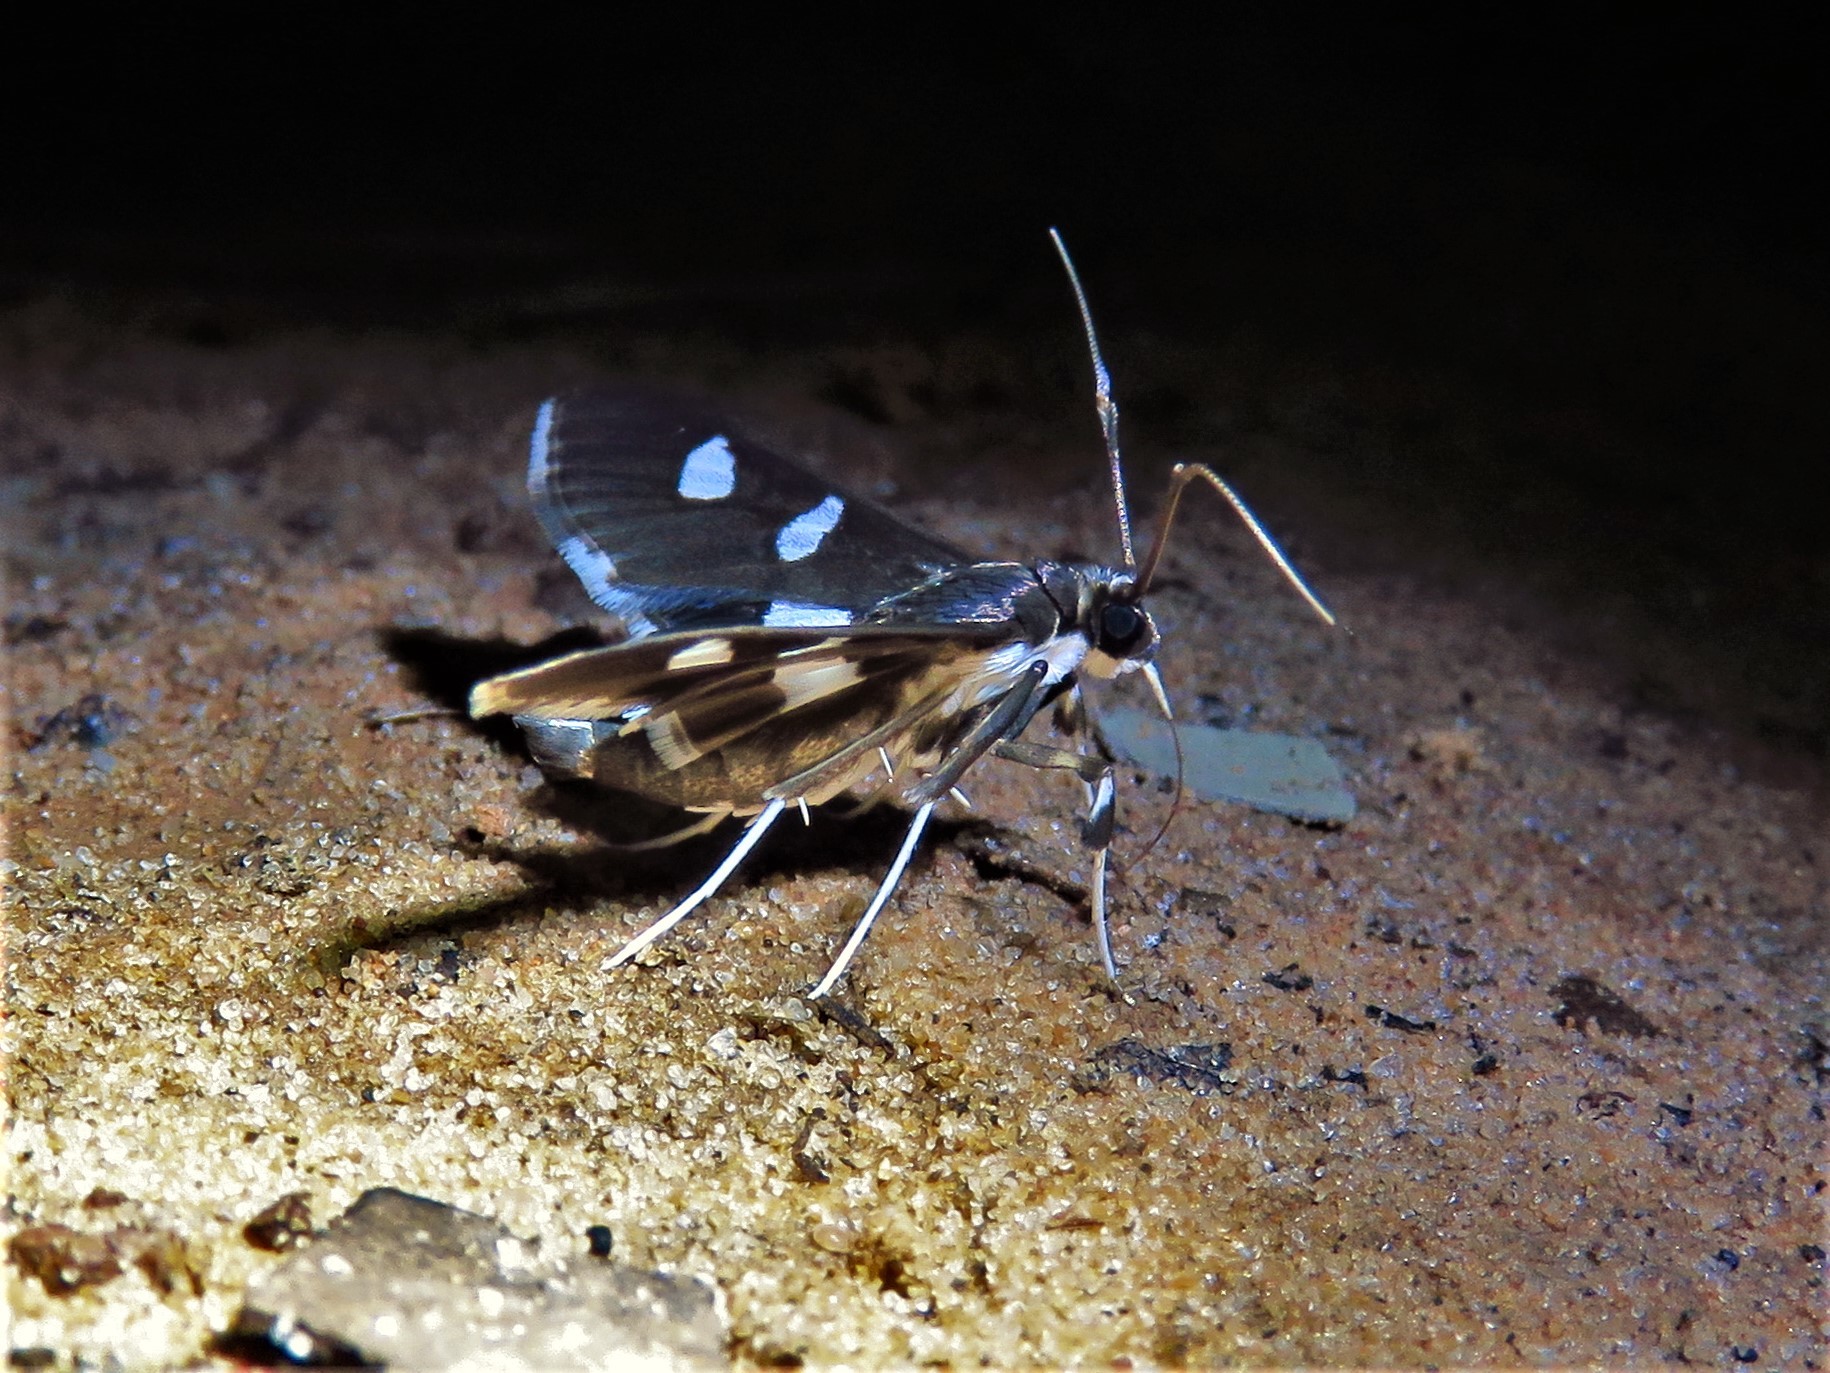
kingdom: Animalia
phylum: Arthropoda
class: Insecta
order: Lepidoptera
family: Crambidae
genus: Desmia
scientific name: Desmia funeralis
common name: Grape leaf folder moth
